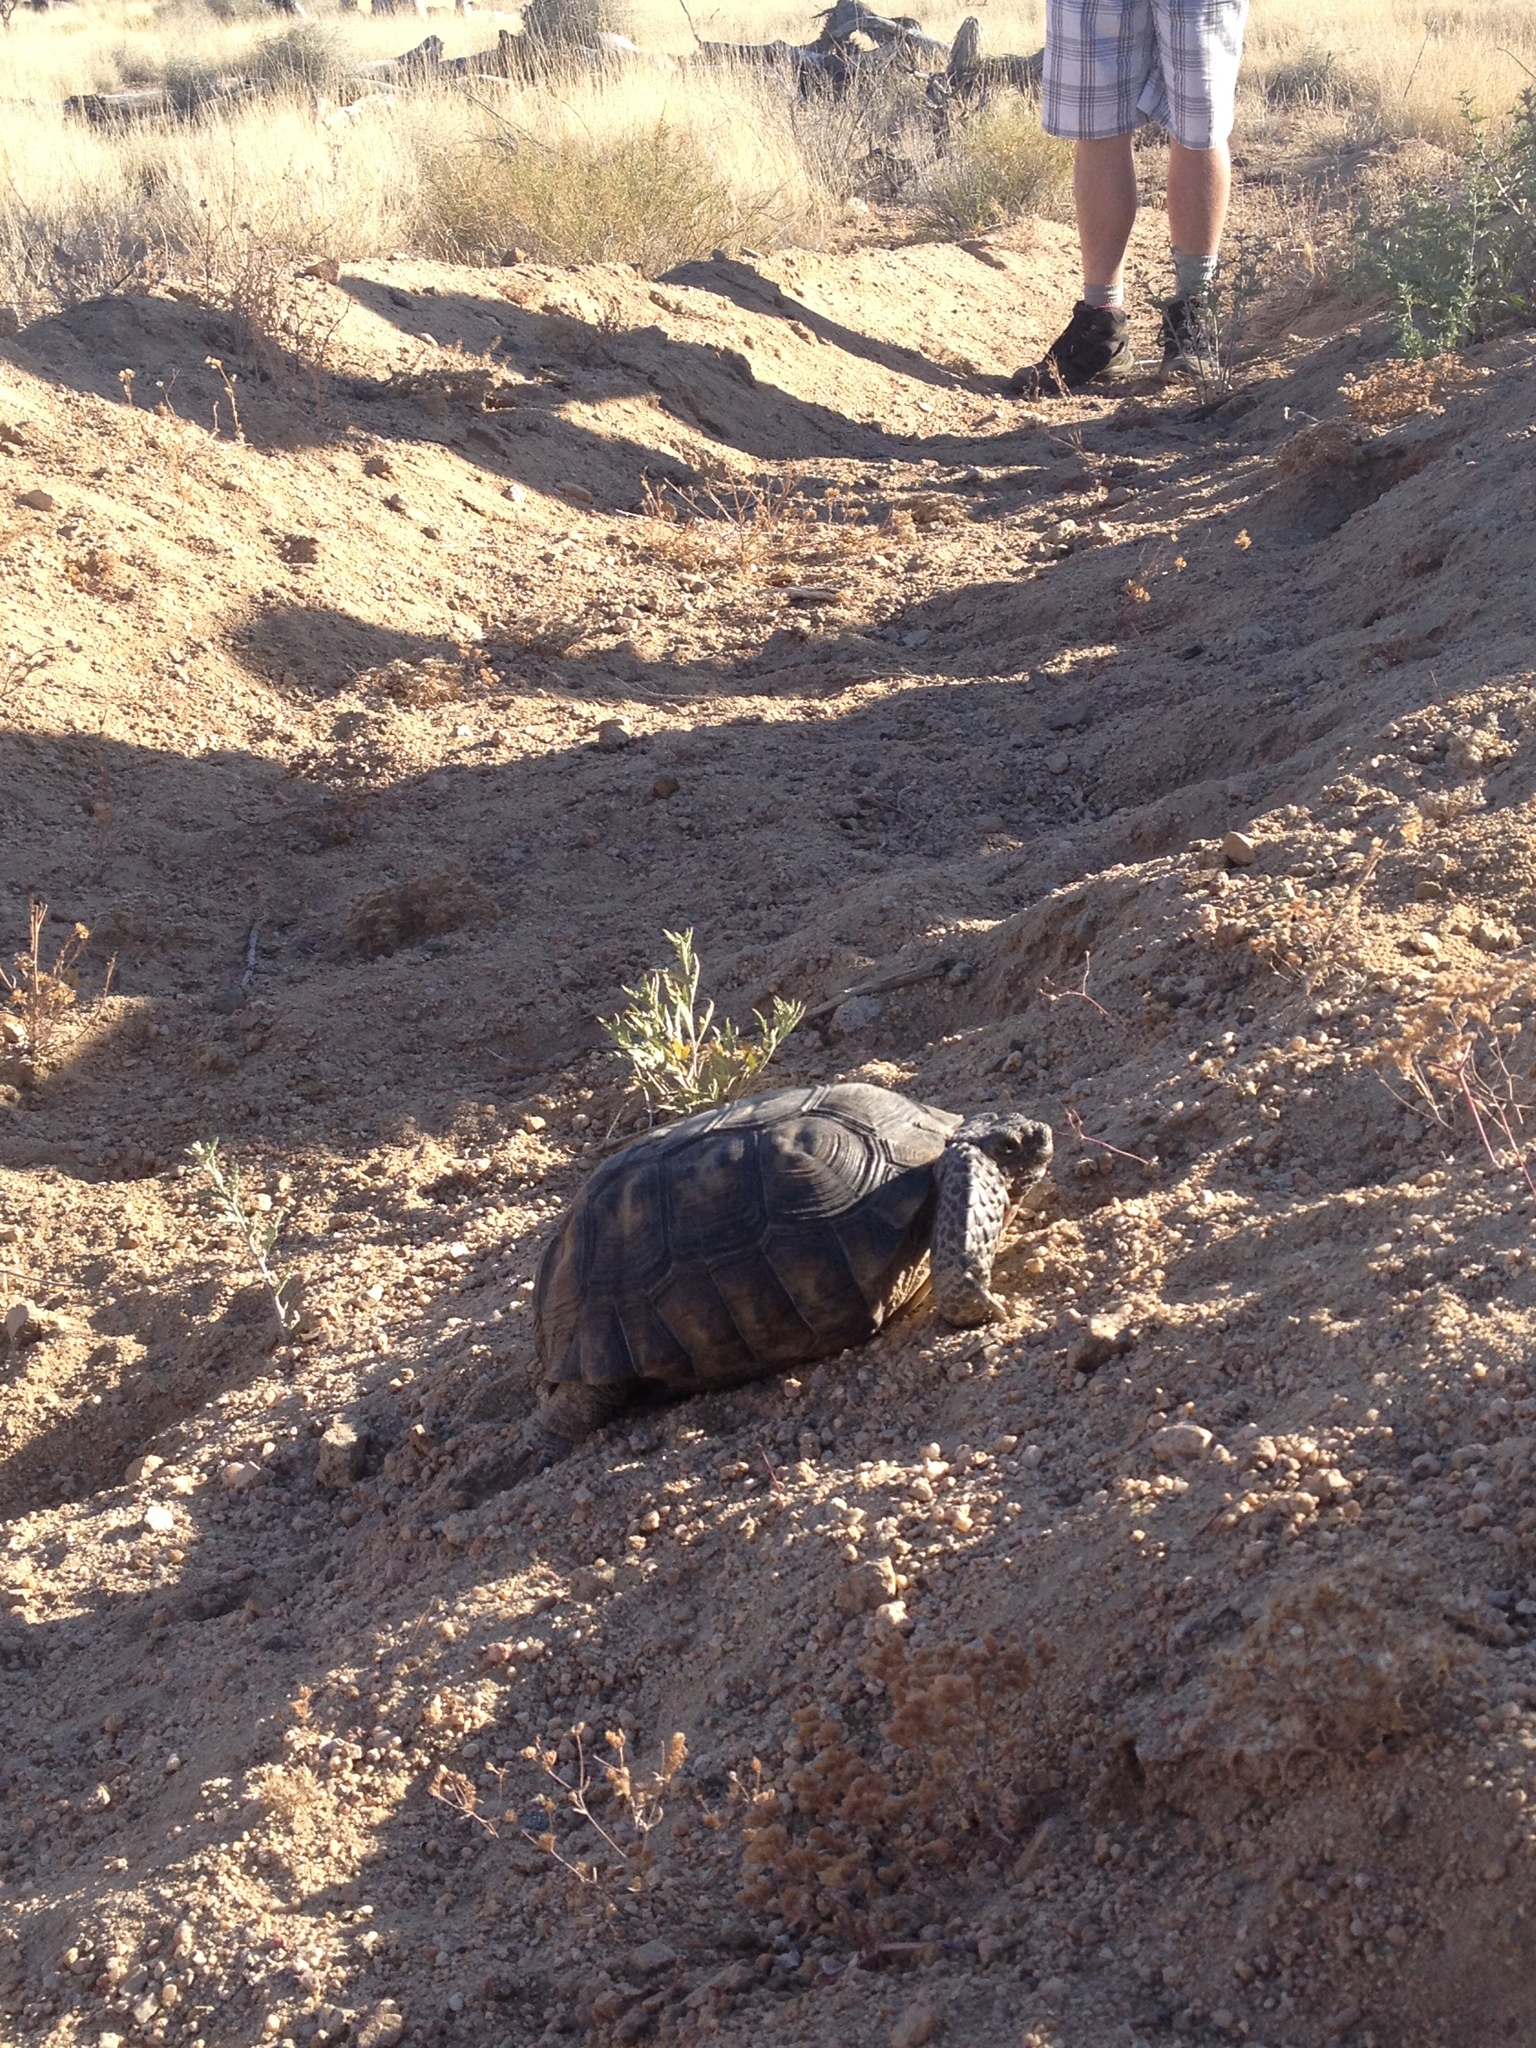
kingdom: Animalia
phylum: Chordata
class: Testudines
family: Testudinidae
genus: Gopherus
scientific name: Gopherus agassizii
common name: Mojave desert tortoise
